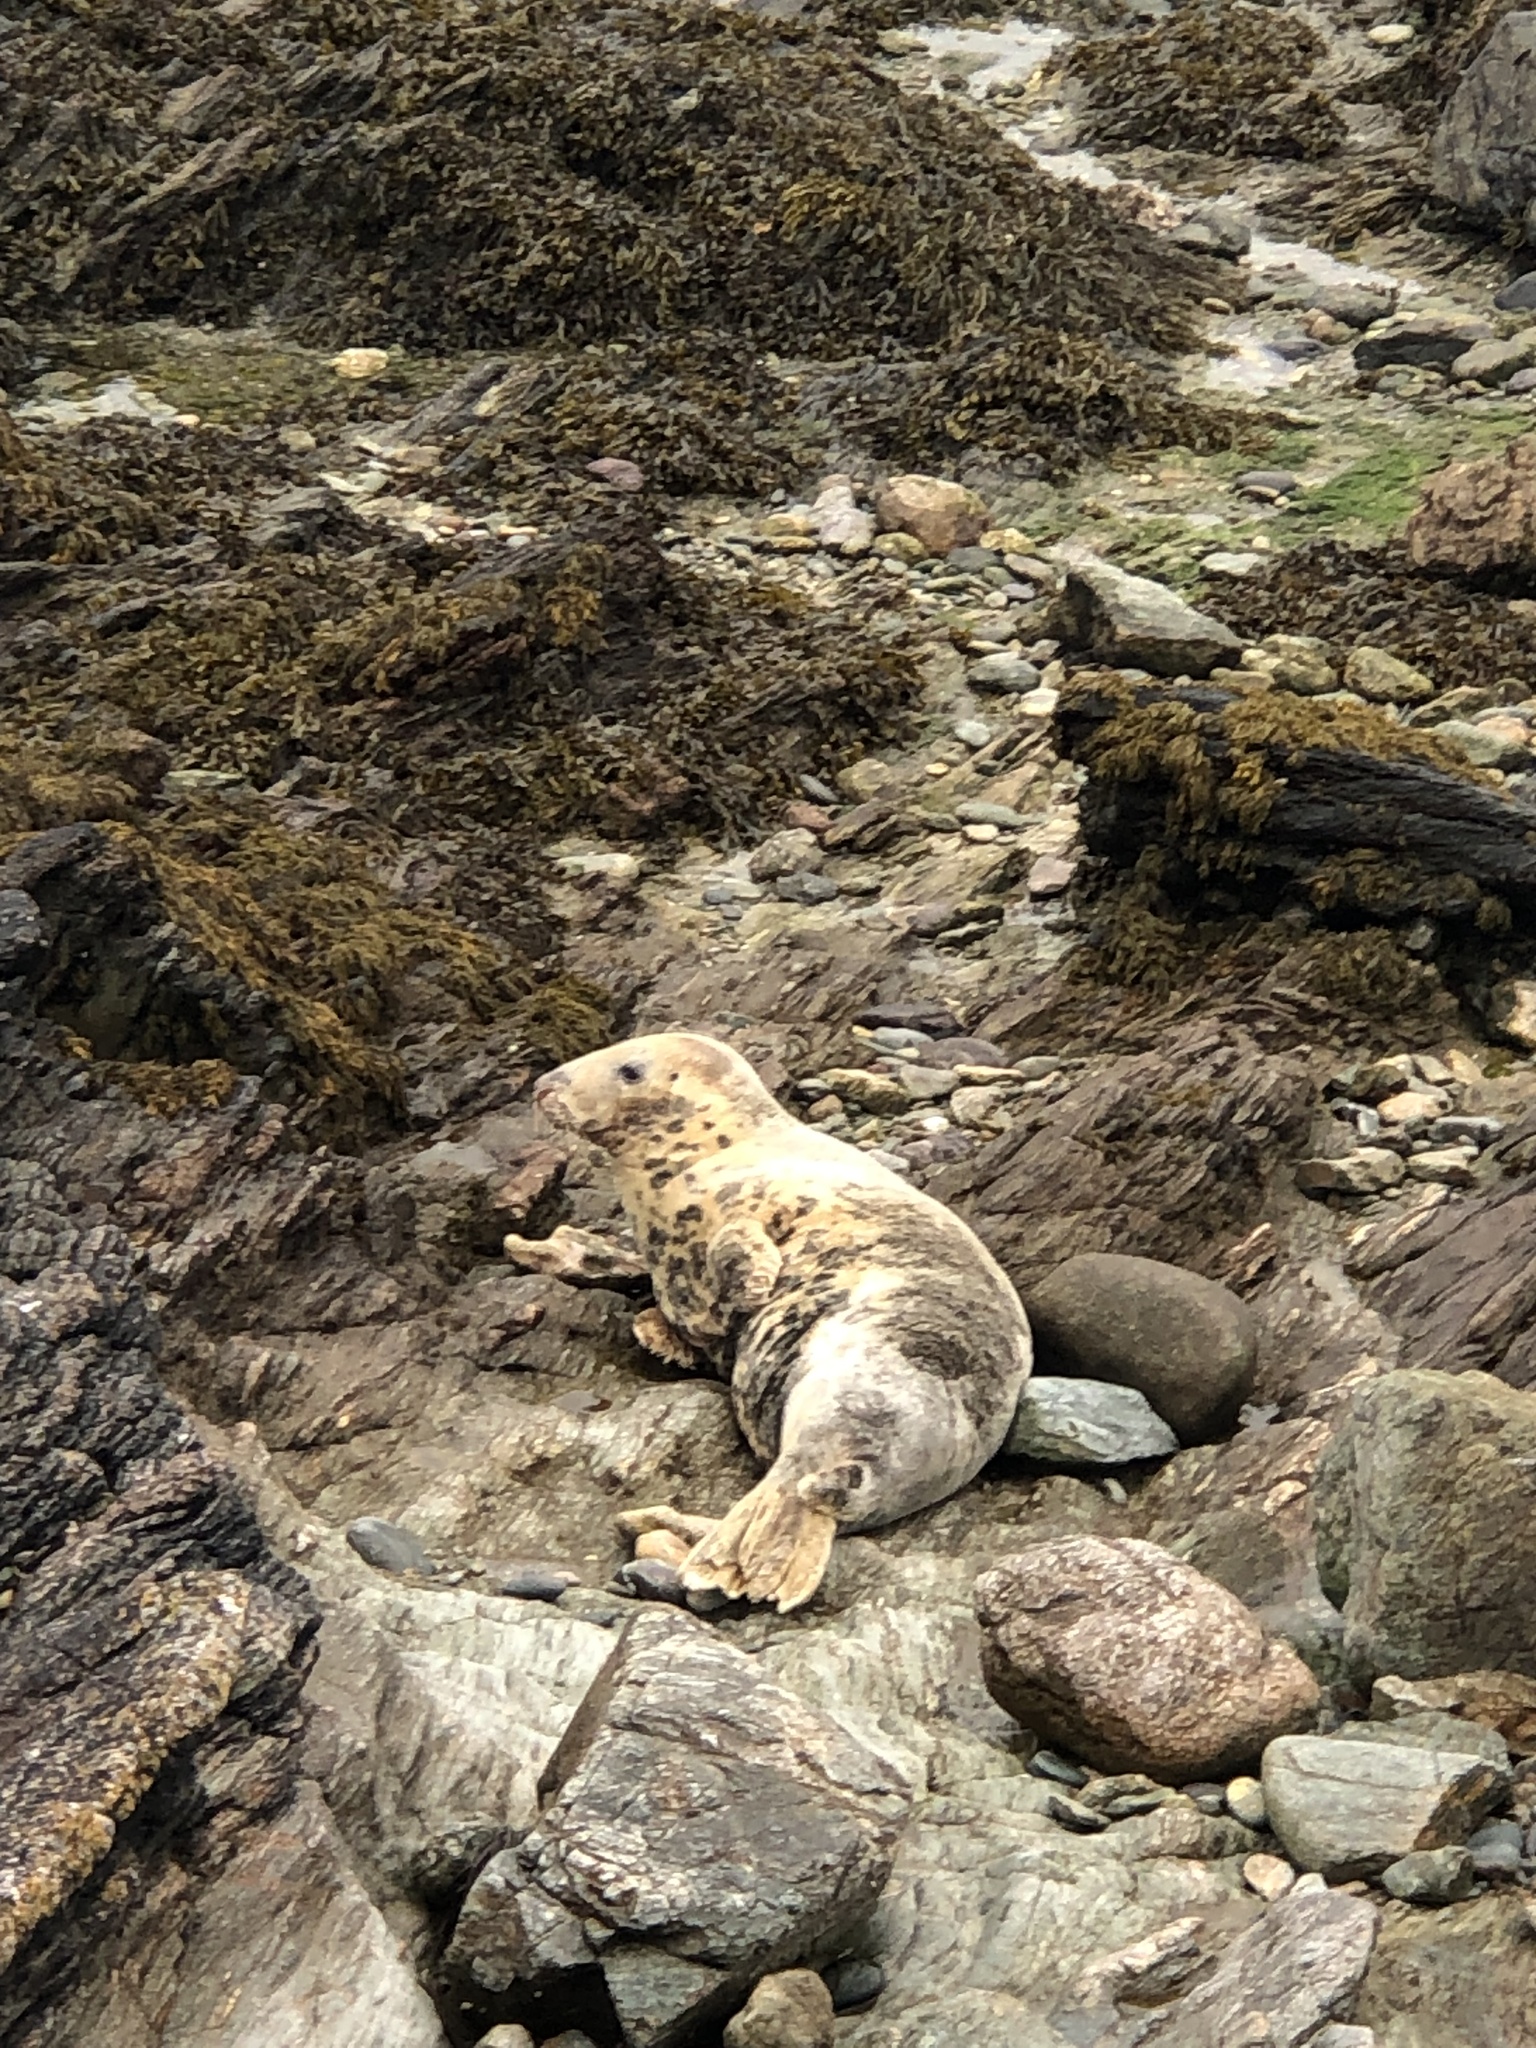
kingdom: Animalia
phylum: Chordata
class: Mammalia
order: Carnivora
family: Phocidae
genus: Halichoerus
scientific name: Halichoerus grypus
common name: Grey seal
